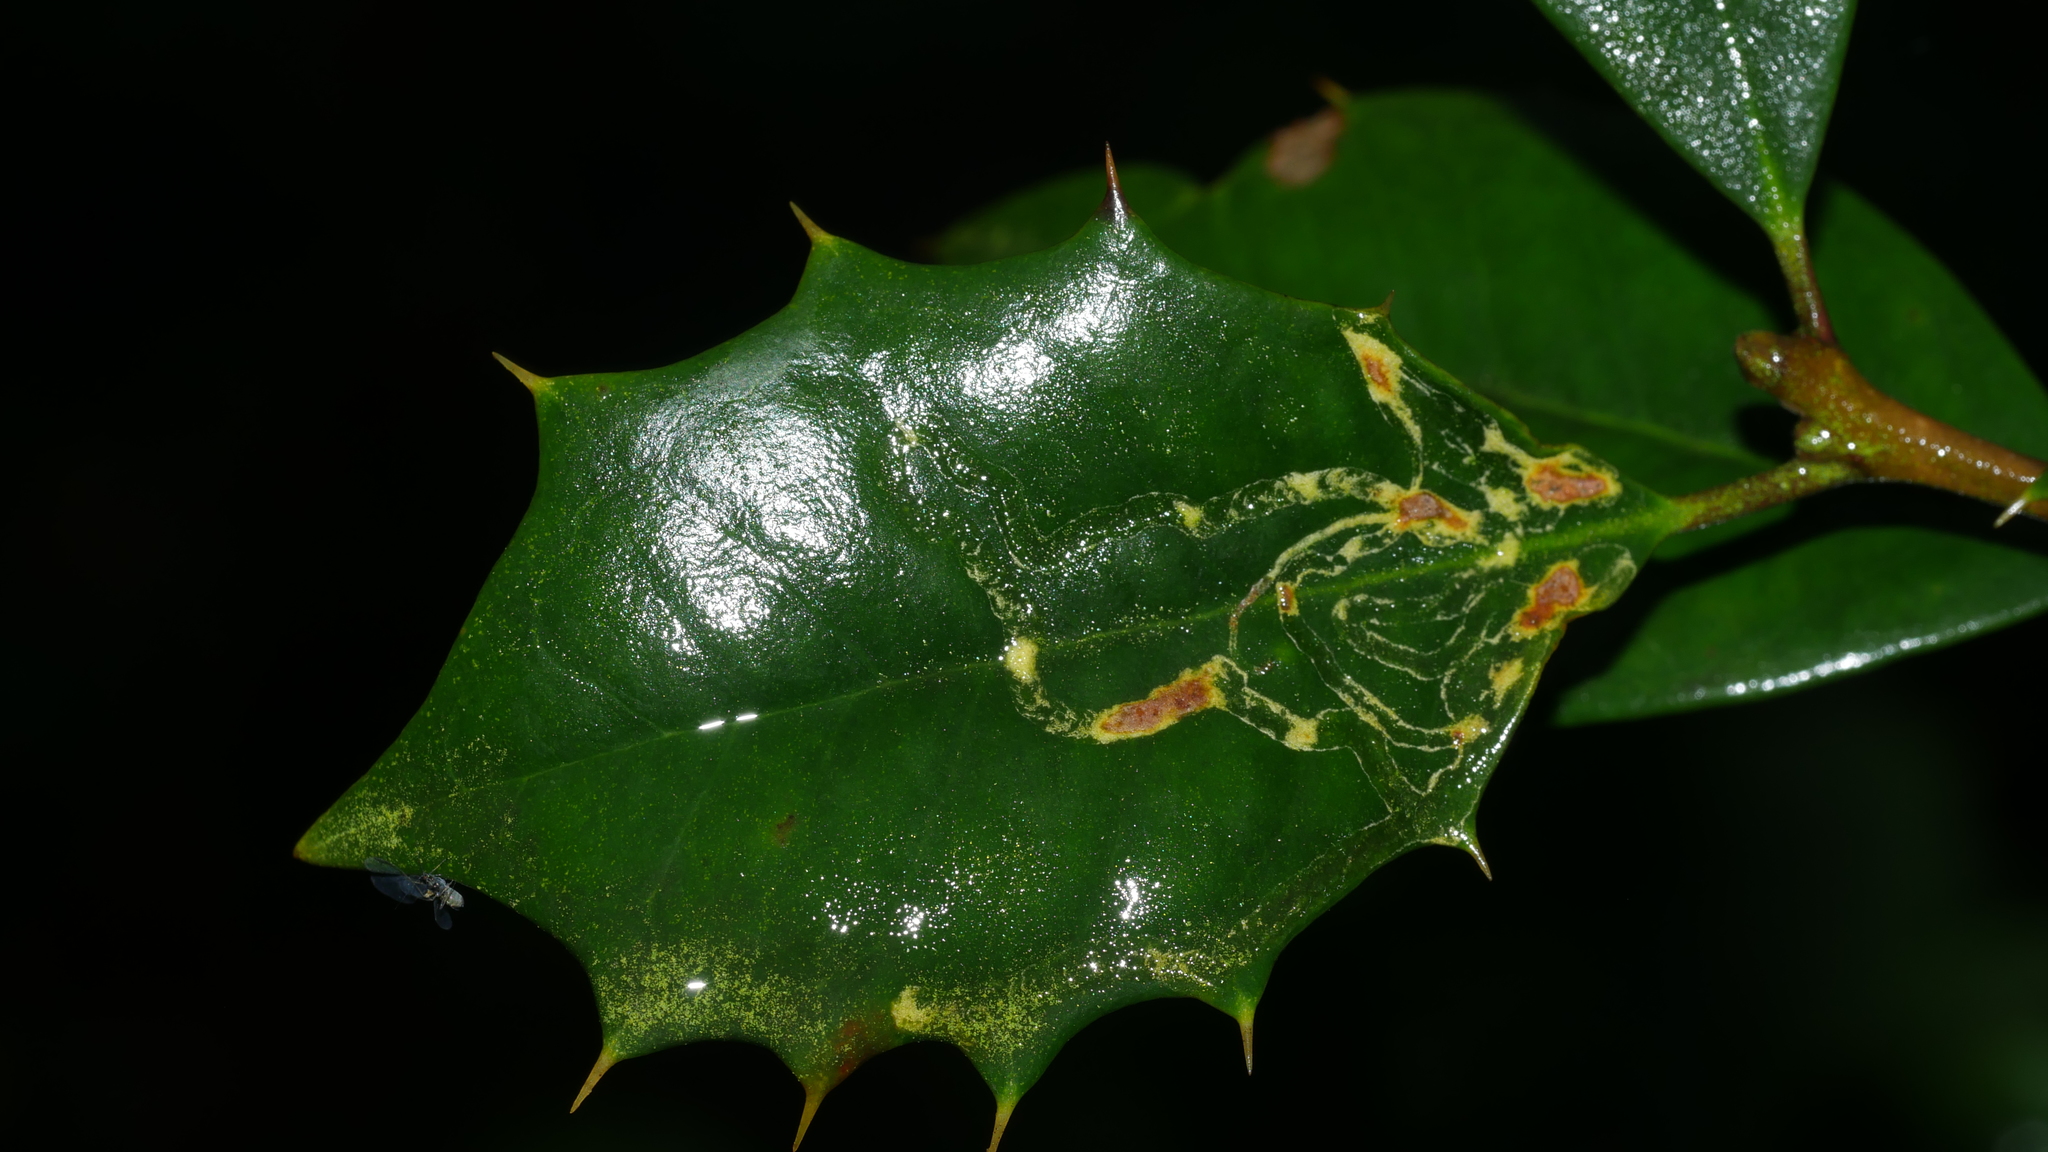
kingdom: Animalia
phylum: Arthropoda
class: Insecta
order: Diptera
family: Agromyzidae
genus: Phytomyza
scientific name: Phytomyza opacae
